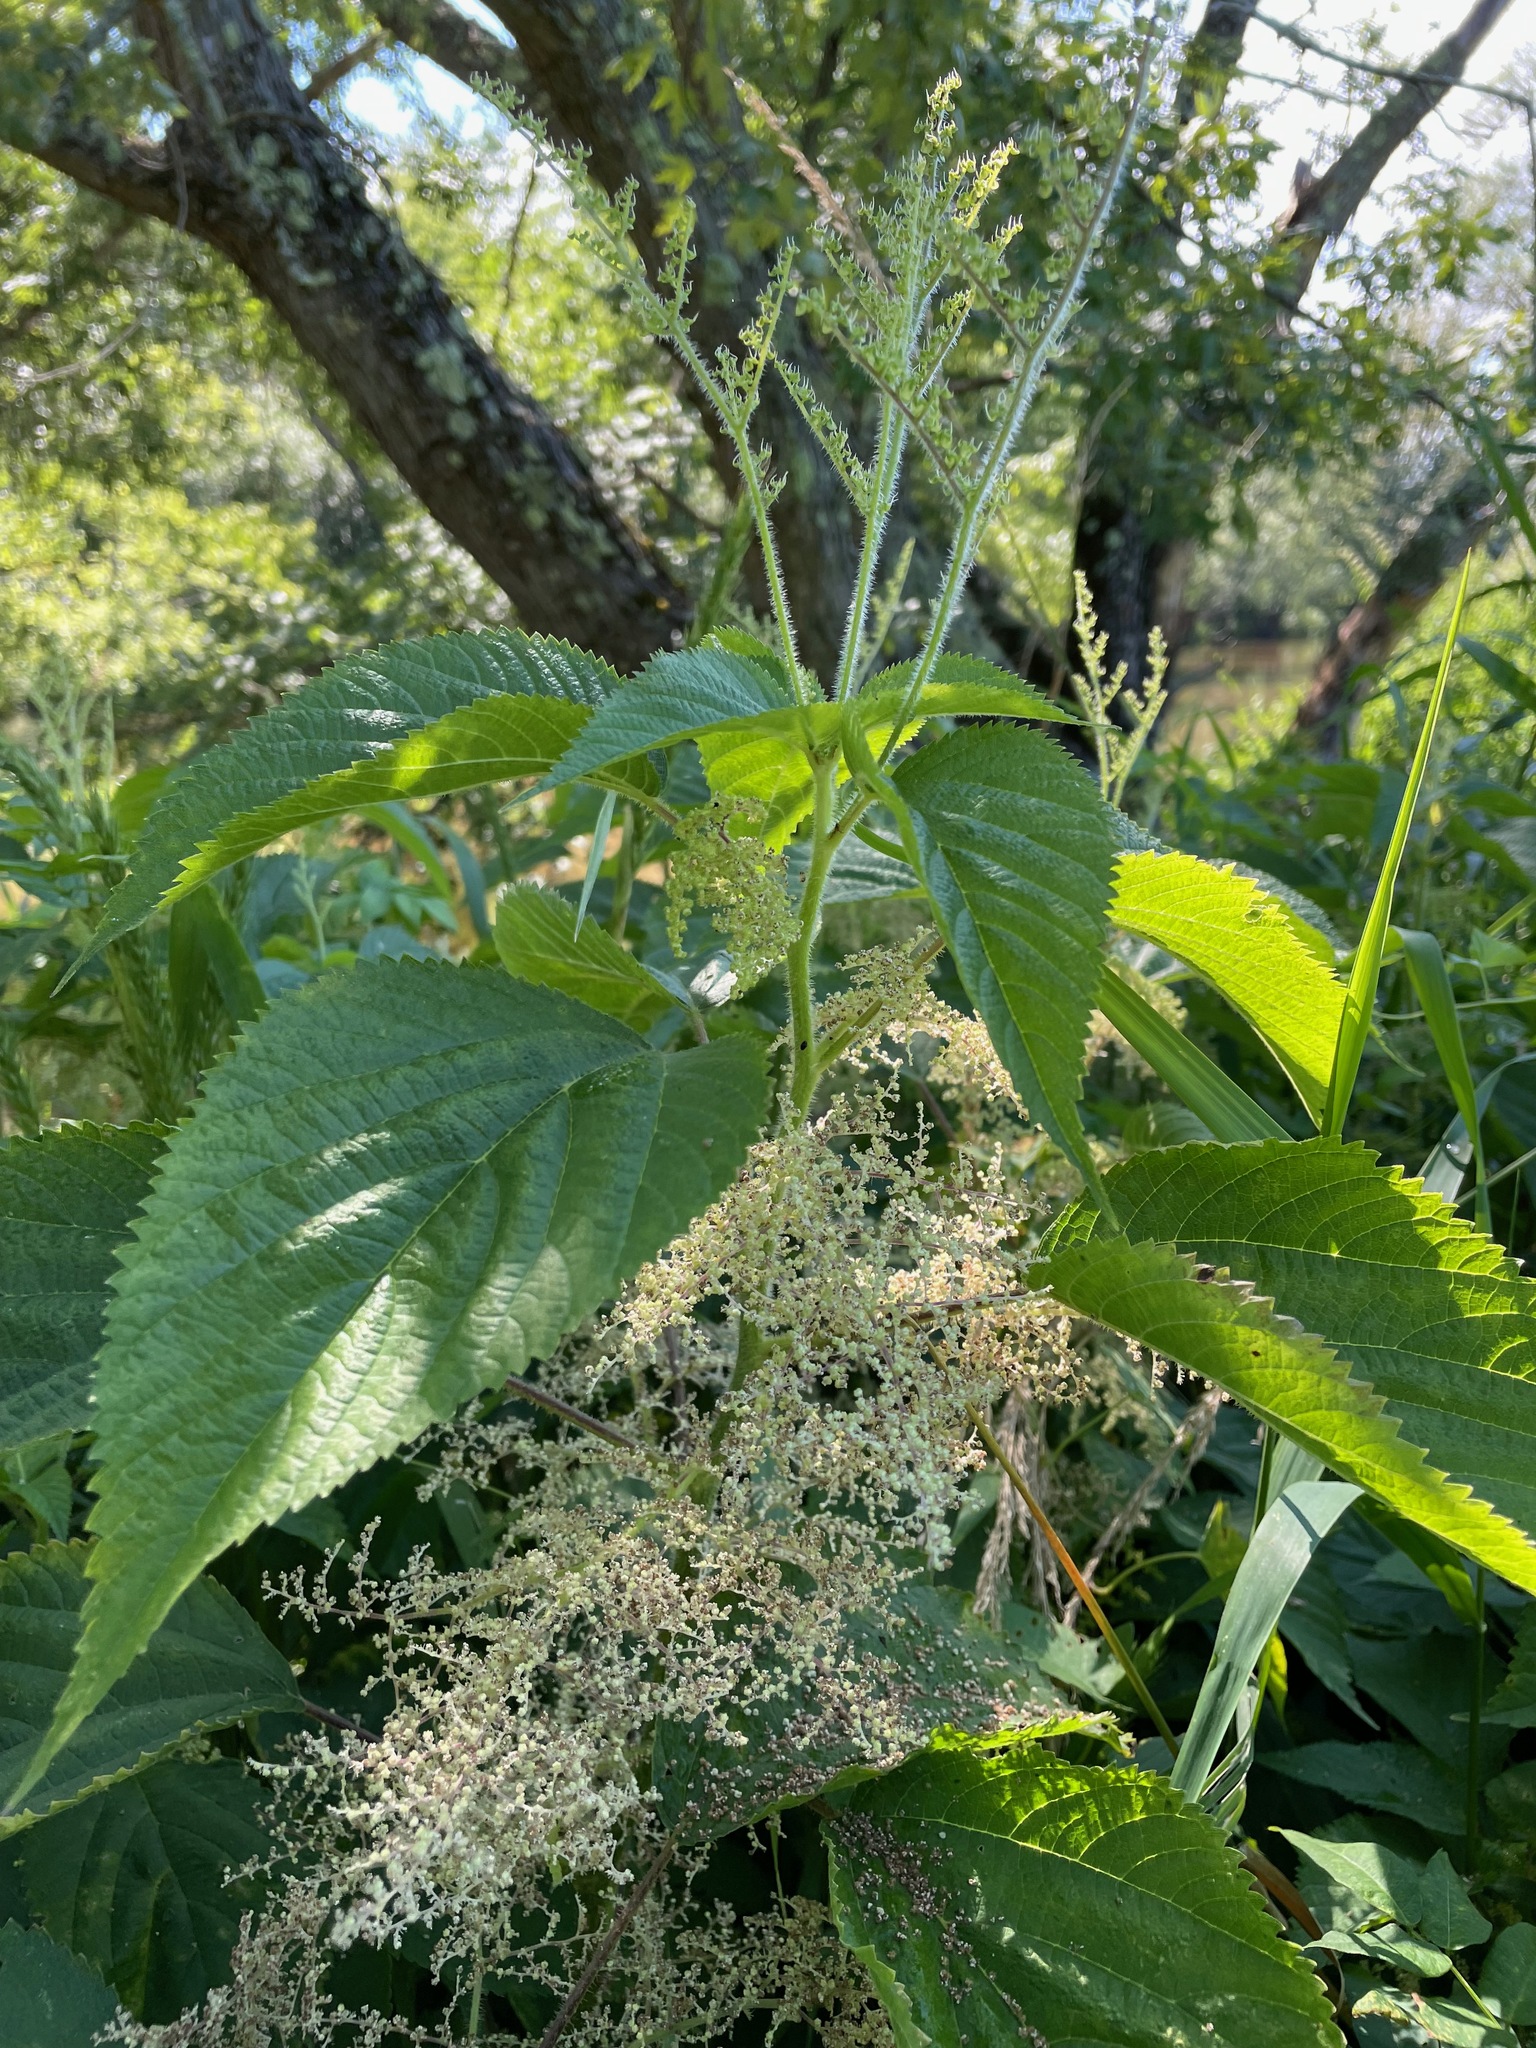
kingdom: Plantae
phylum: Tracheophyta
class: Magnoliopsida
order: Rosales
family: Urticaceae
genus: Laportea
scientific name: Laportea canadensis
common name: Canada nettle
